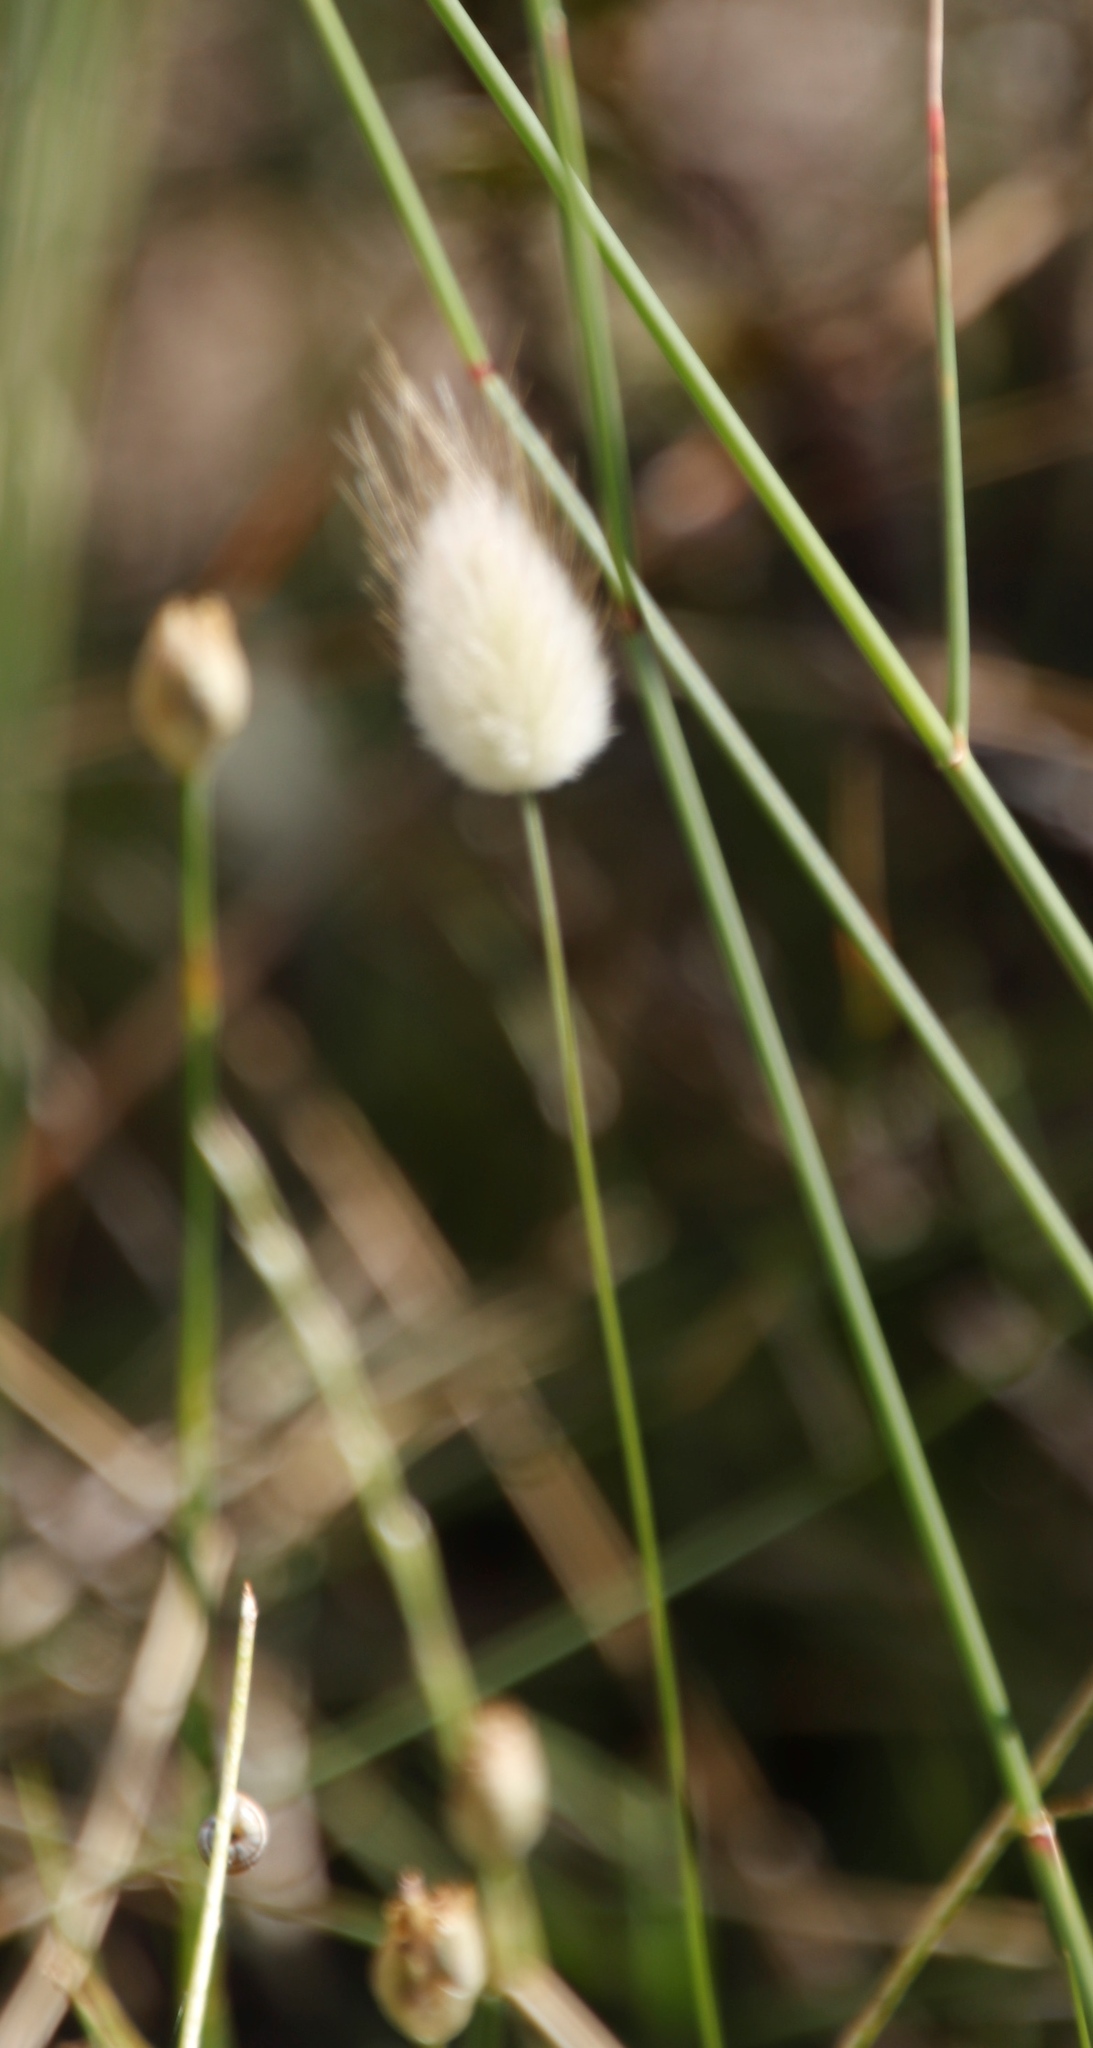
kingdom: Plantae
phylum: Tracheophyta
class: Liliopsida
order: Poales
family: Poaceae
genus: Lagurus
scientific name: Lagurus ovatus
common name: Hare's-tail
